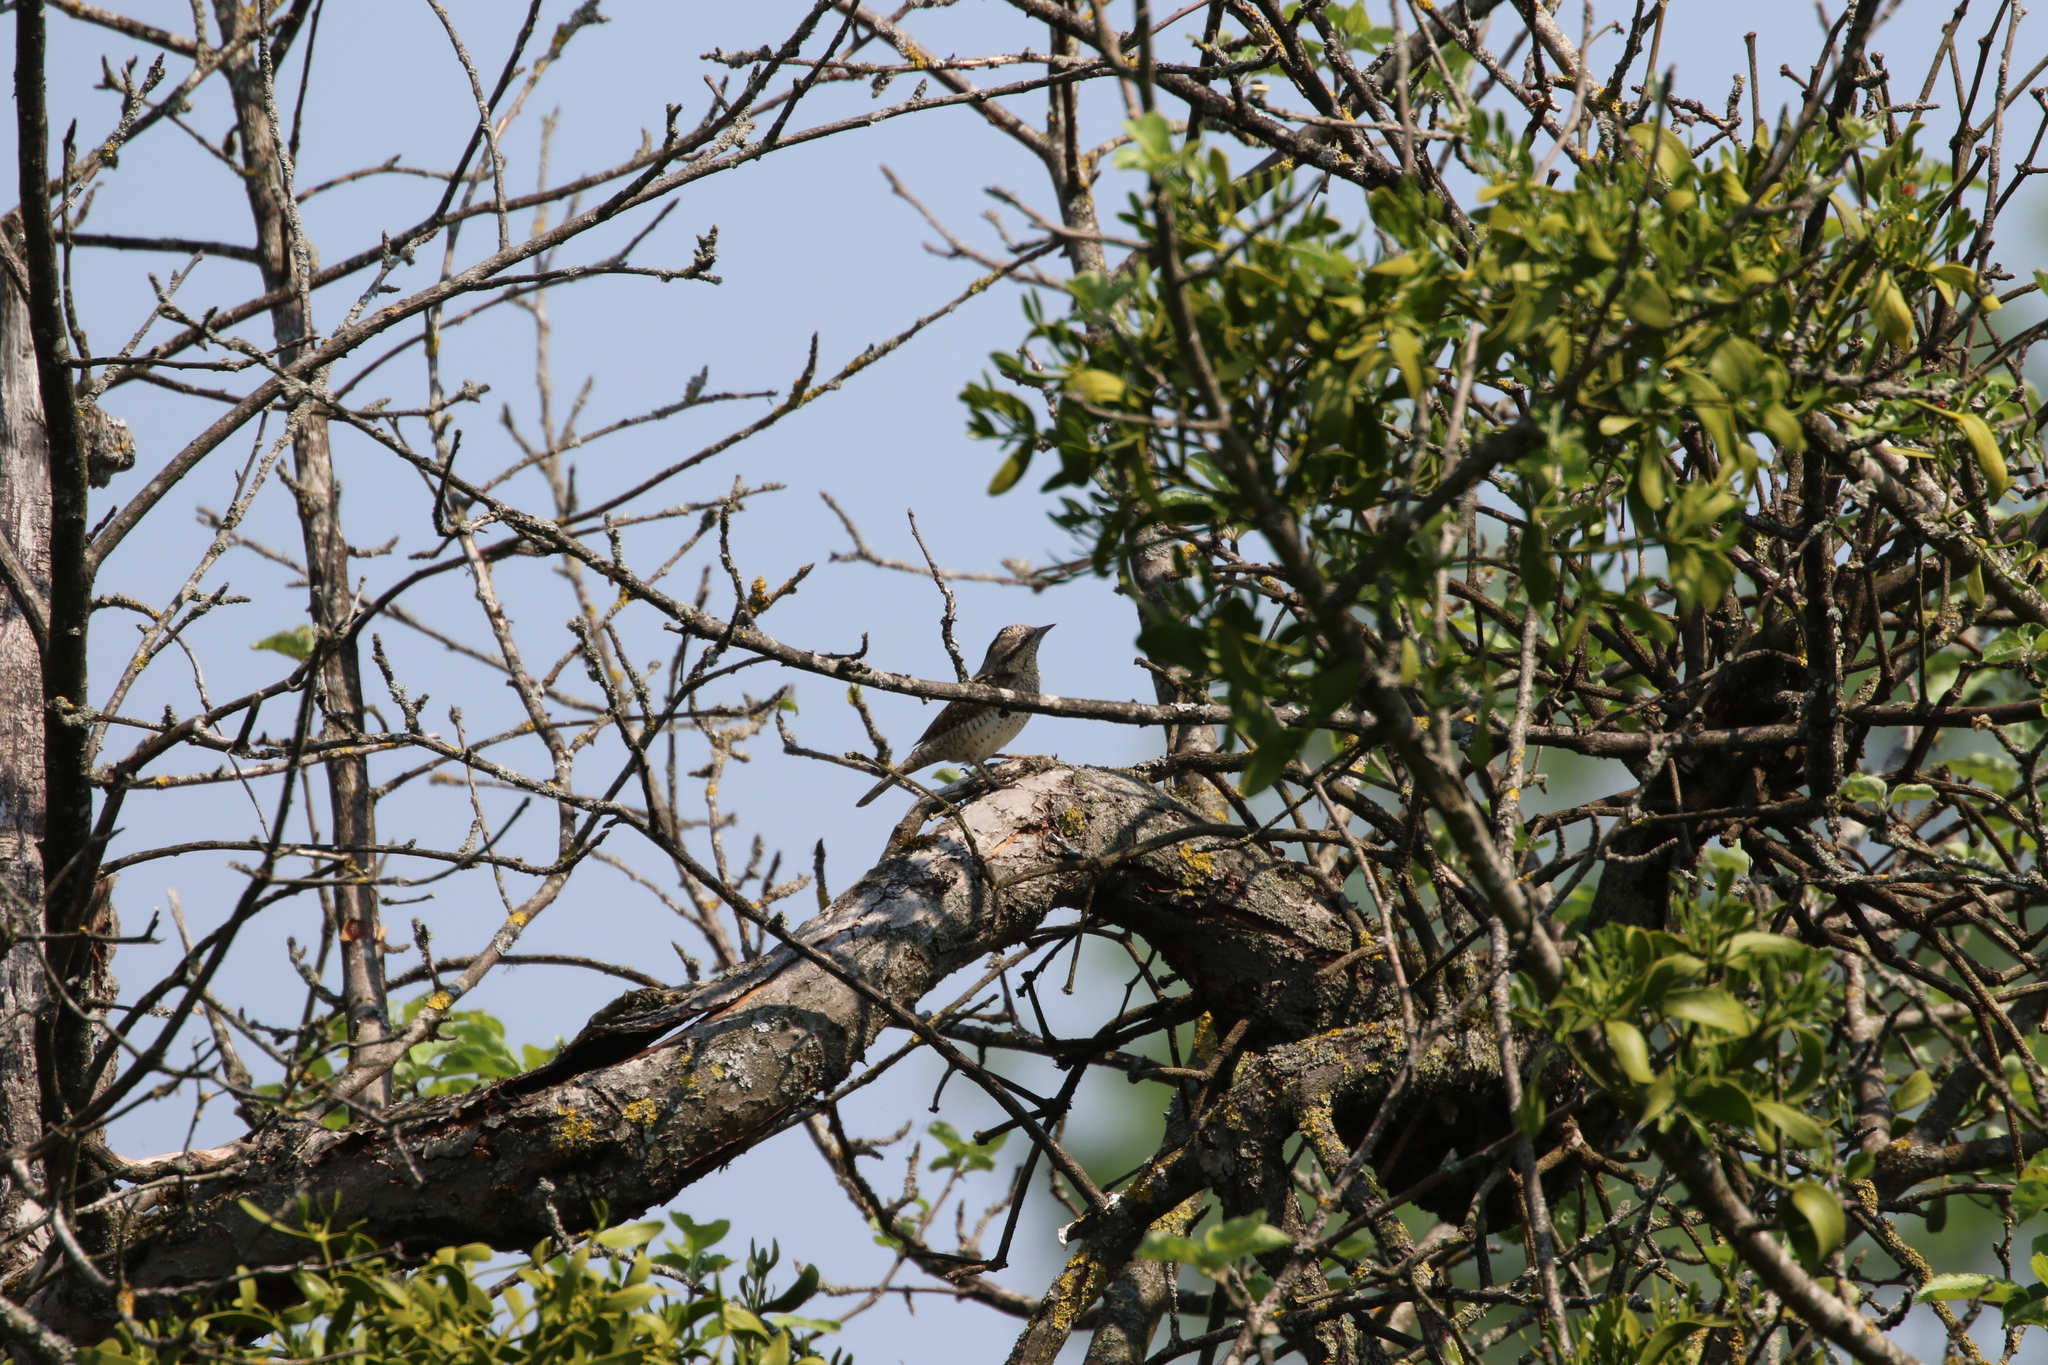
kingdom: Animalia
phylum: Chordata
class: Aves
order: Piciformes
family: Picidae
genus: Jynx
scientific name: Jynx torquilla
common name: Eurasian wryneck
